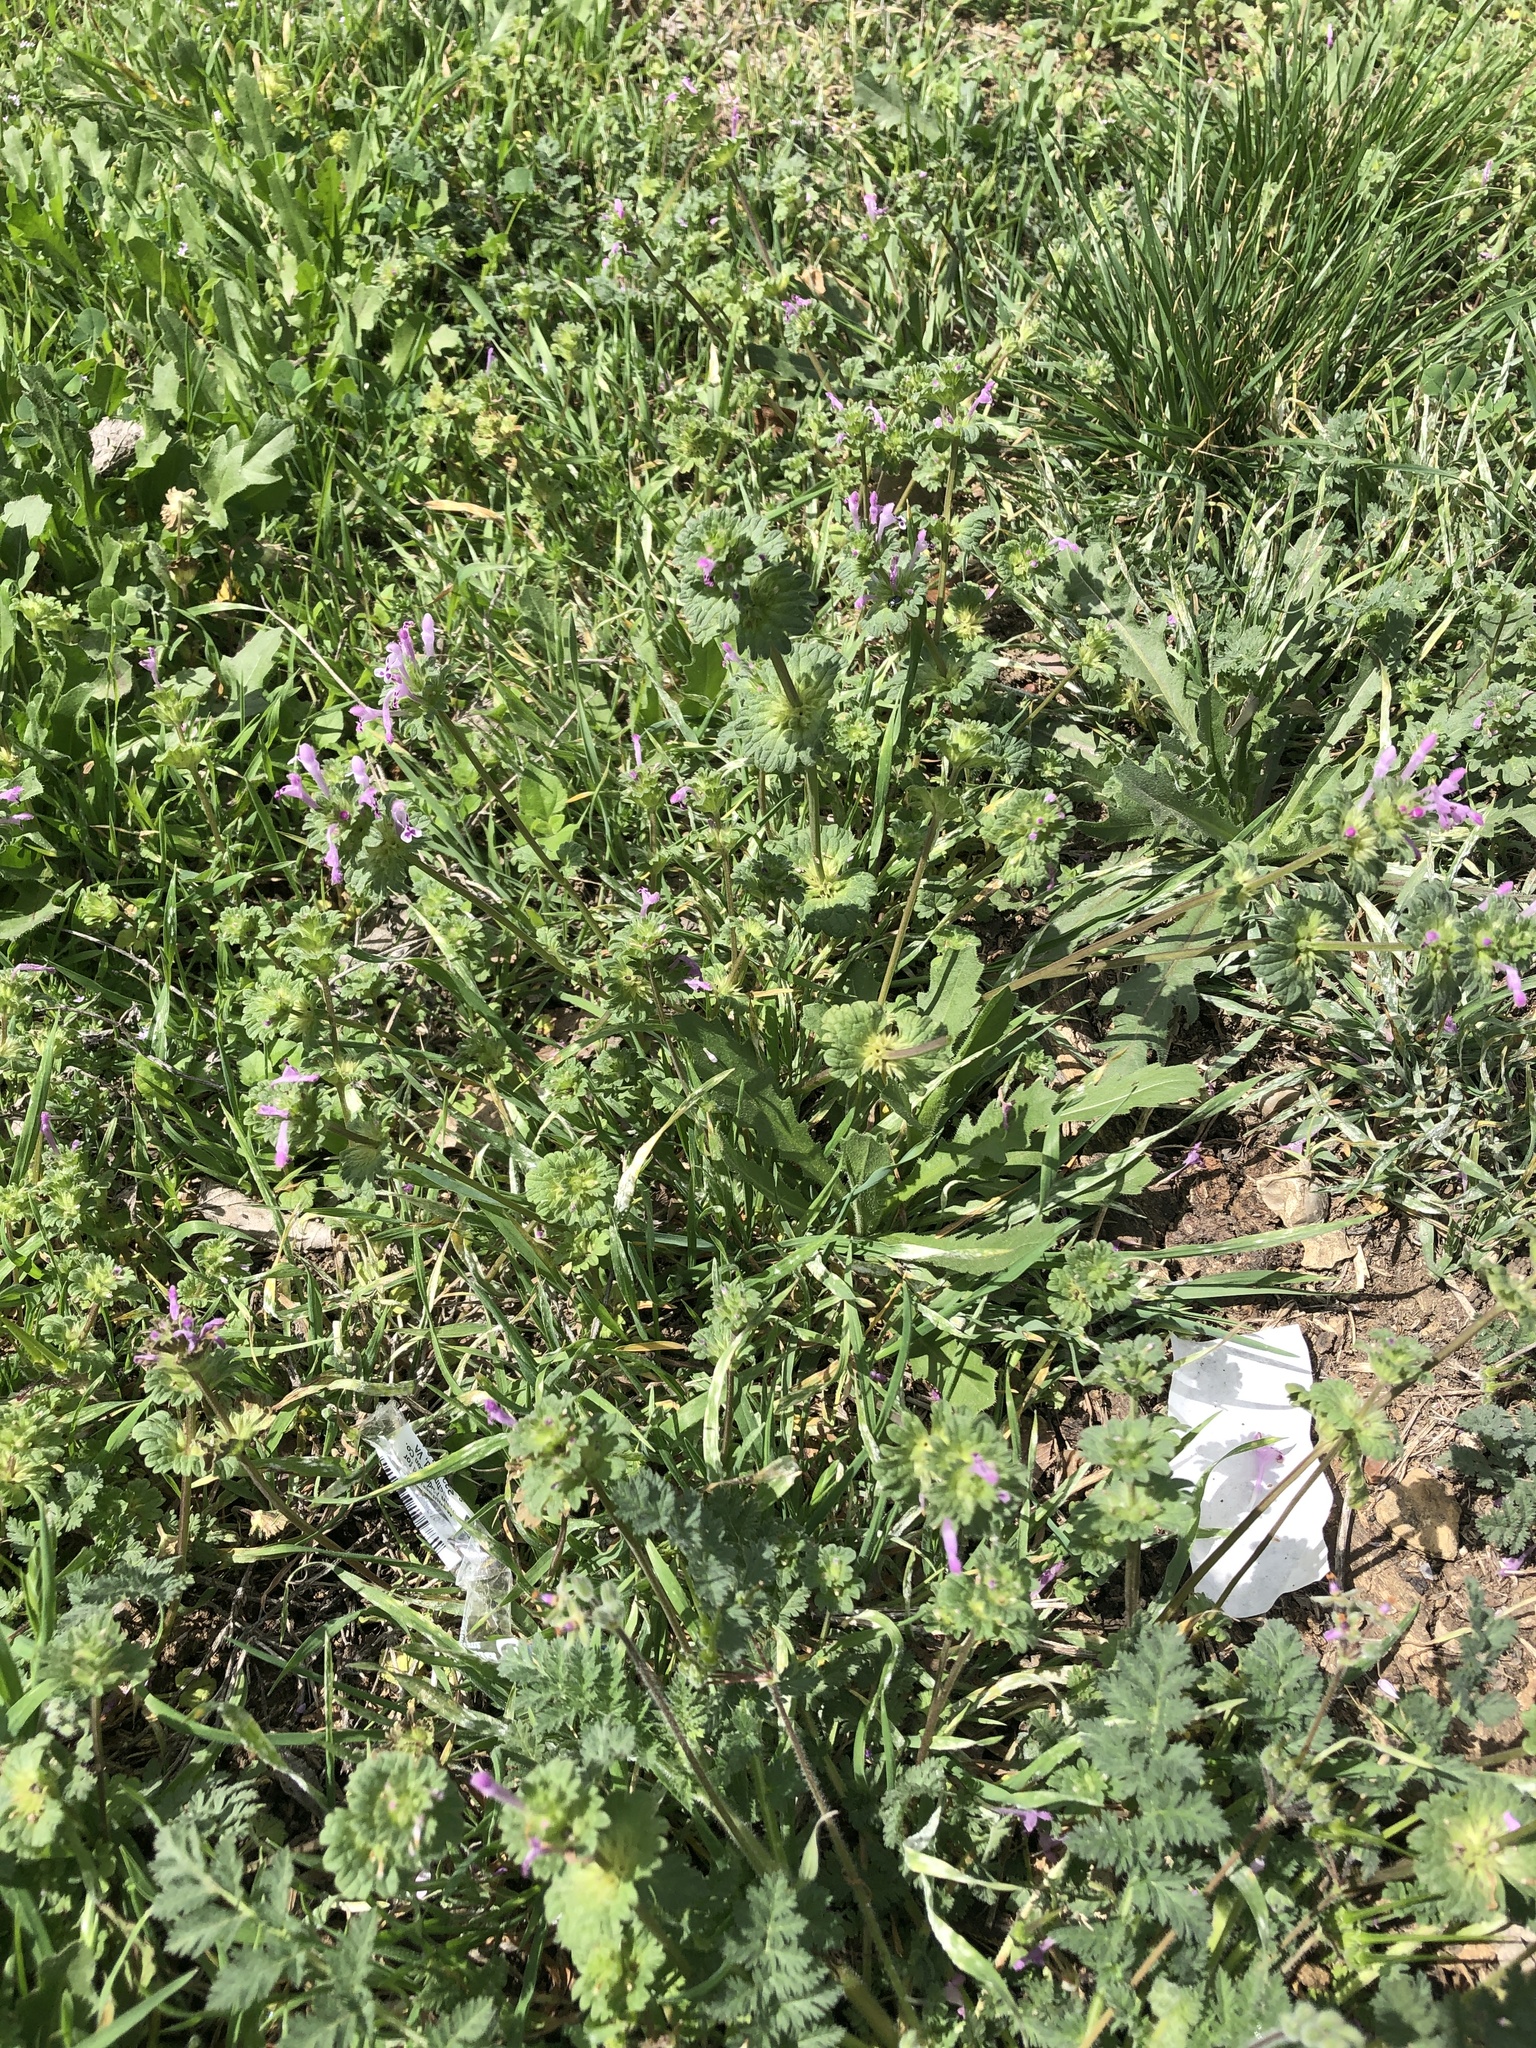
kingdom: Plantae
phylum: Tracheophyta
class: Magnoliopsida
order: Lamiales
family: Lamiaceae
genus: Lamium
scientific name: Lamium amplexicaule
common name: Henbit dead-nettle
